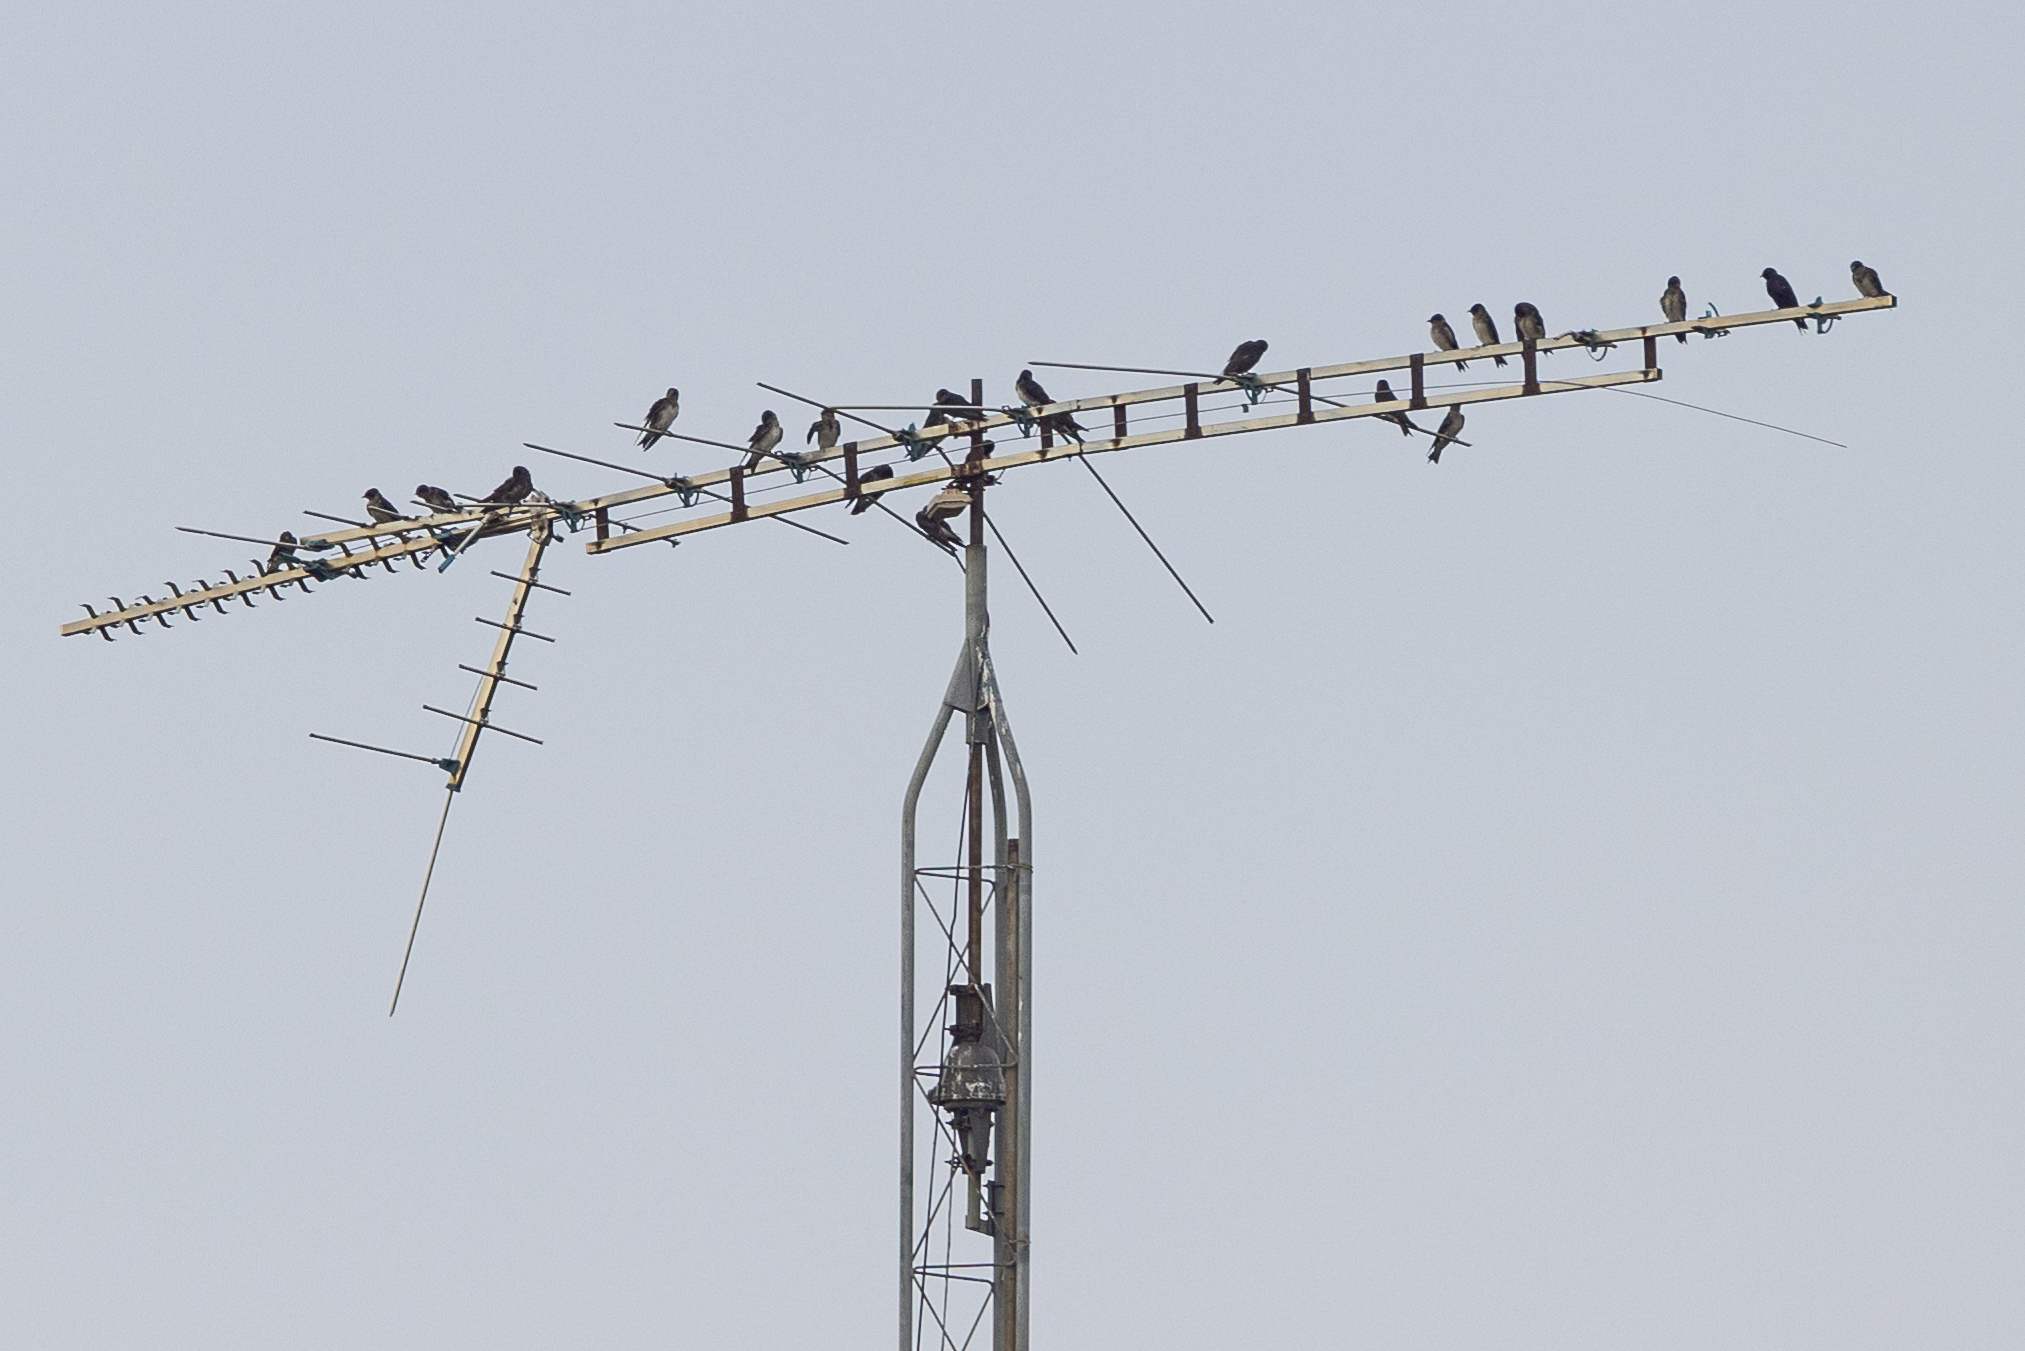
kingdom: Animalia
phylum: Chordata
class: Aves
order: Passeriformes
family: Hirundinidae
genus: Progne
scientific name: Progne subis
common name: Purple martin
